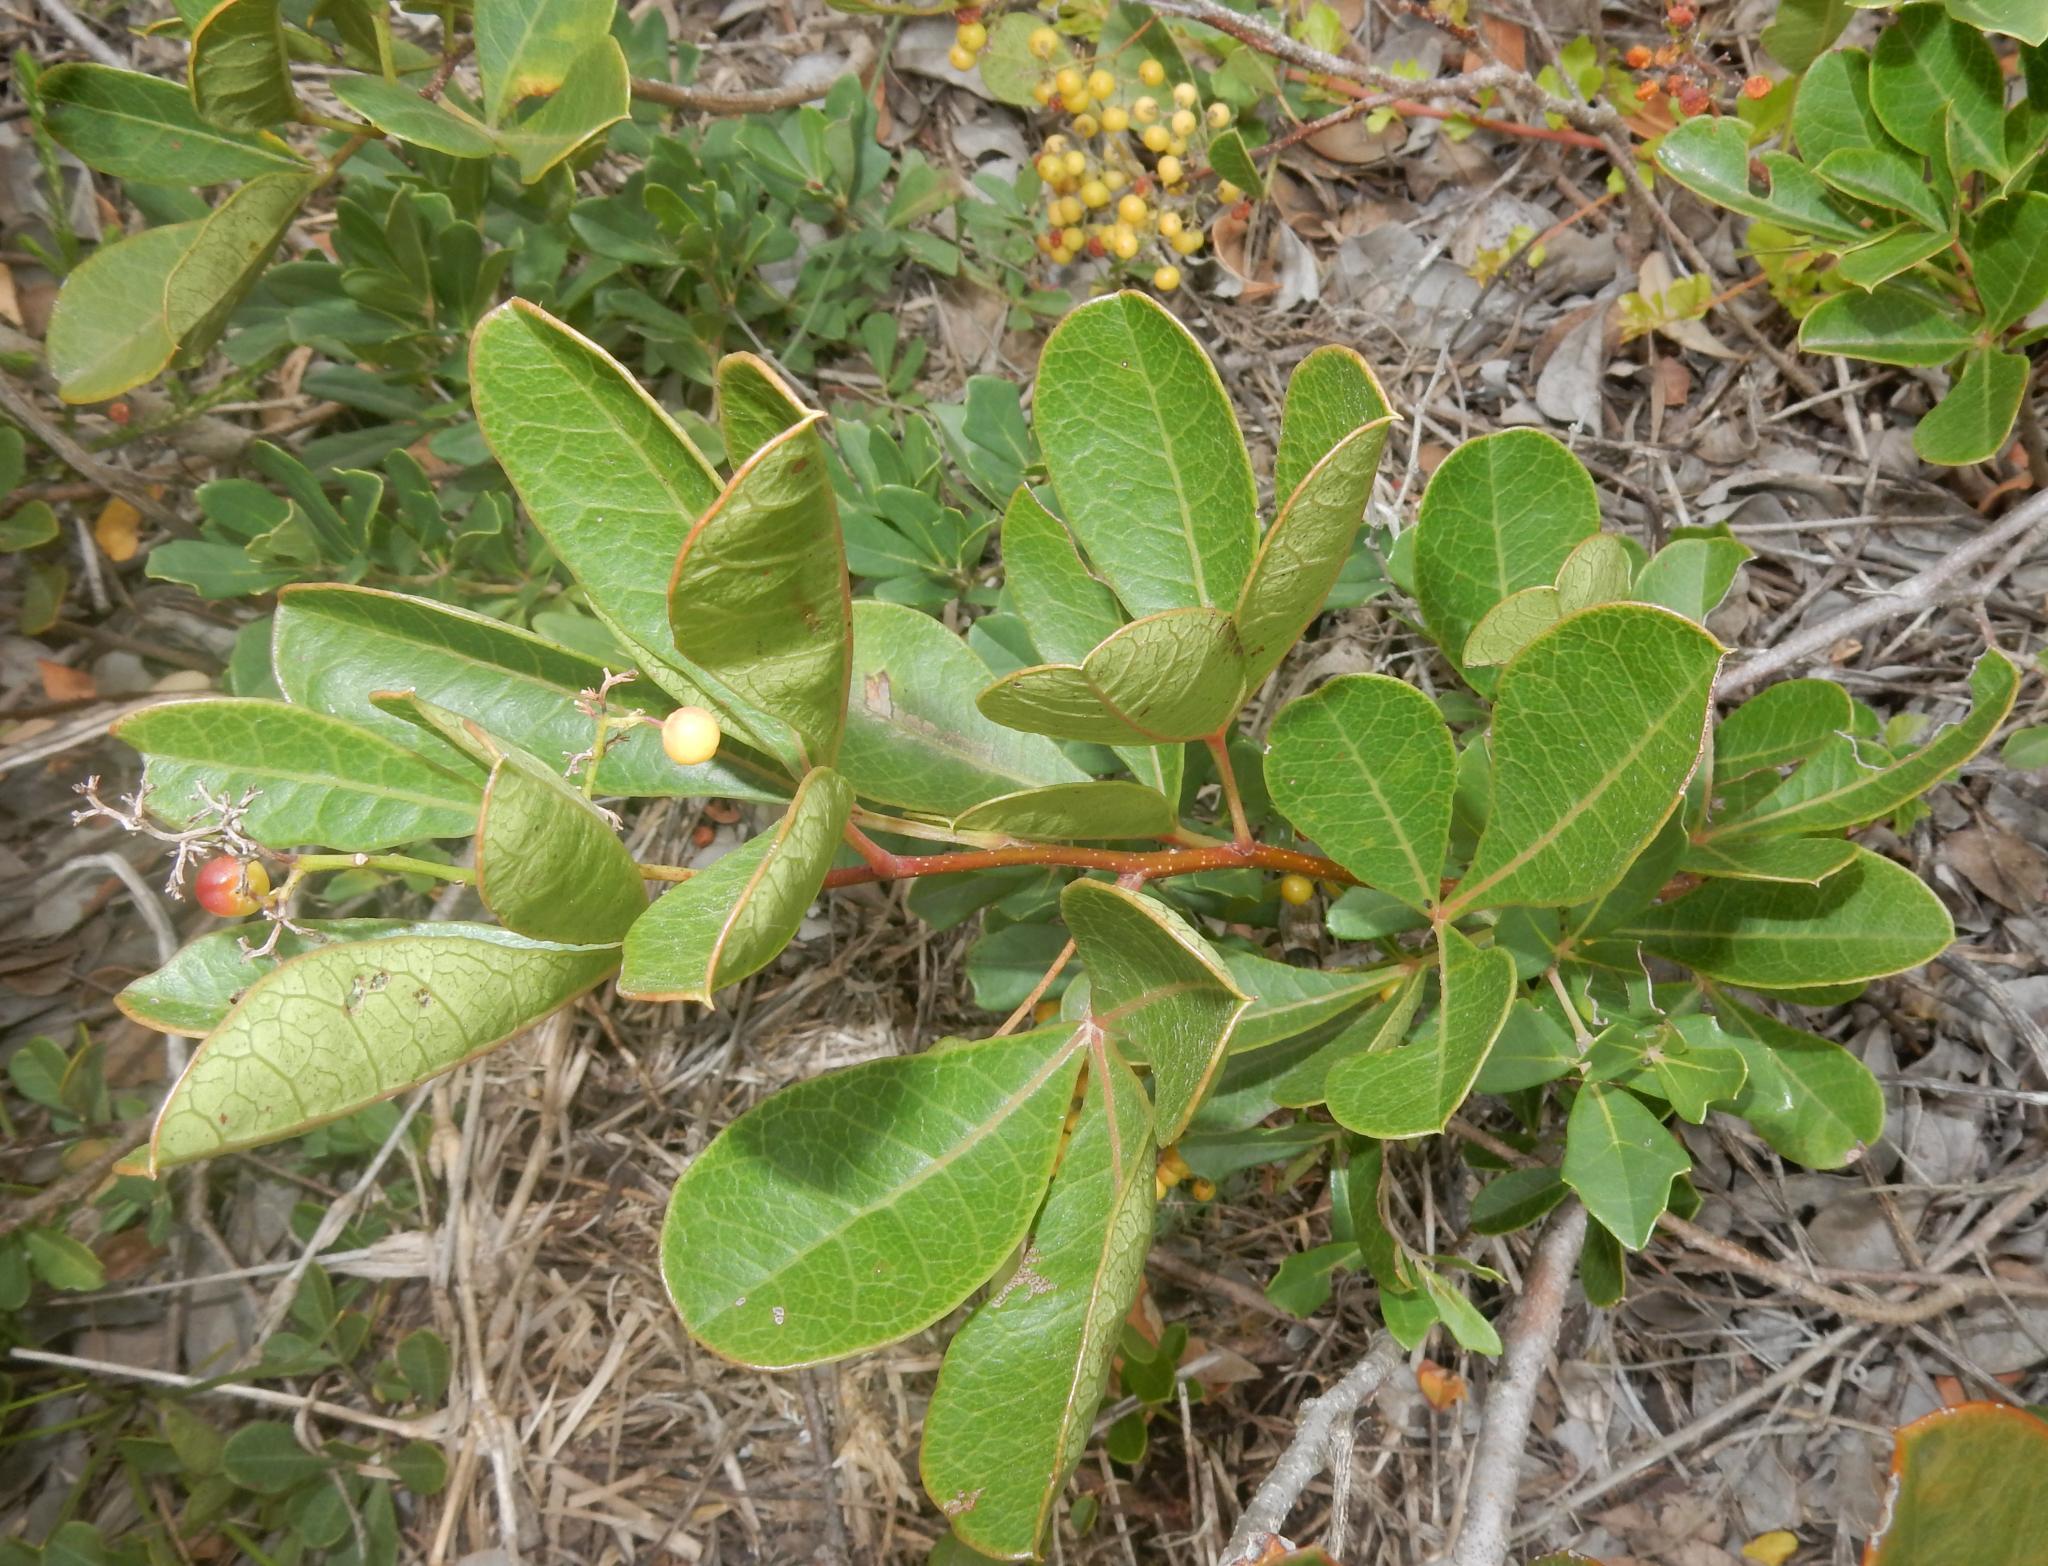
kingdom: Plantae
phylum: Tracheophyta
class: Magnoliopsida
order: Sapindales
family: Anacardiaceae
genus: Searsia
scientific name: Searsia laevigata
